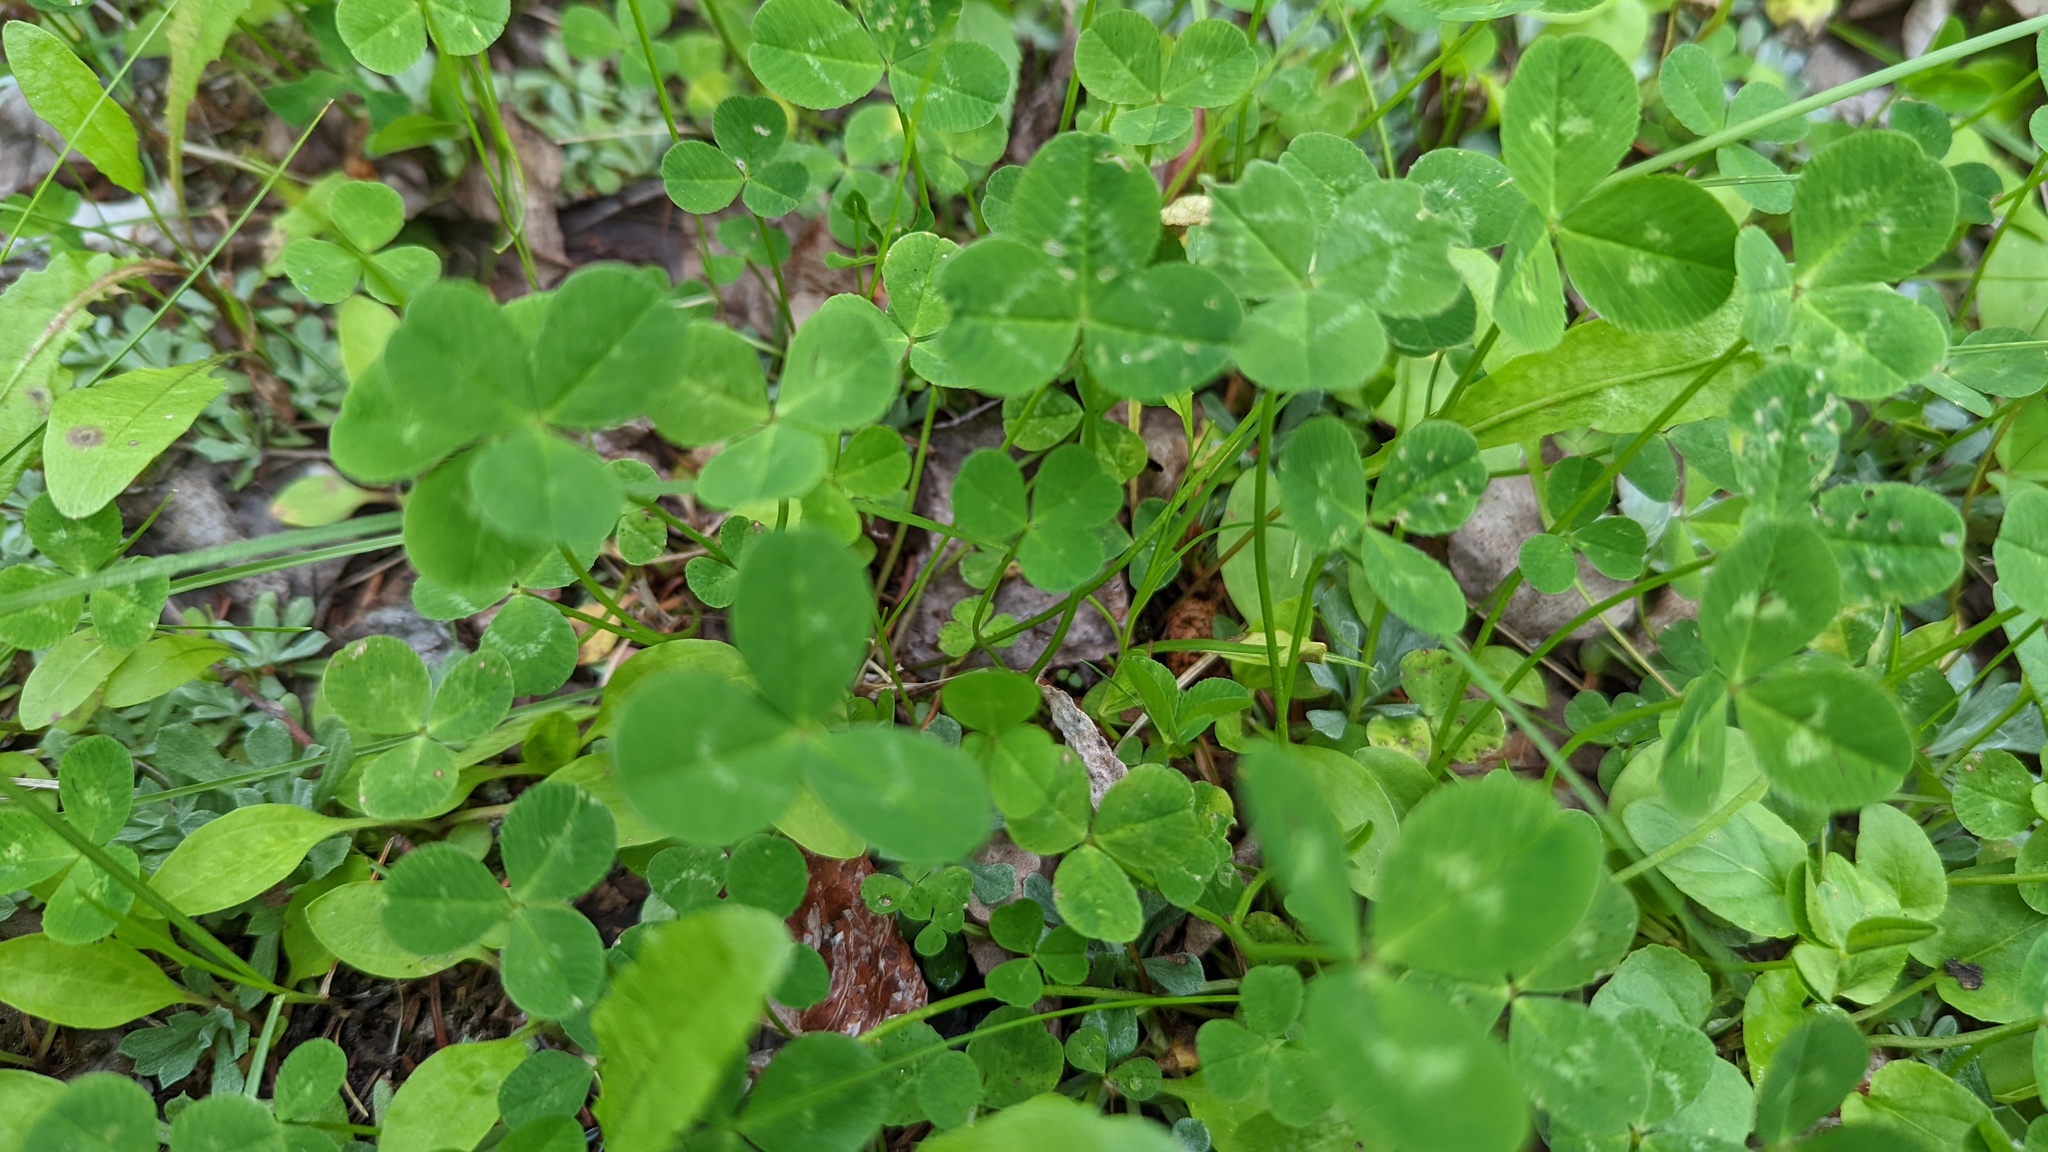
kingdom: Plantae
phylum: Tracheophyta
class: Magnoliopsida
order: Fabales
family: Fabaceae
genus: Trifolium
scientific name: Trifolium repens
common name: White clover
